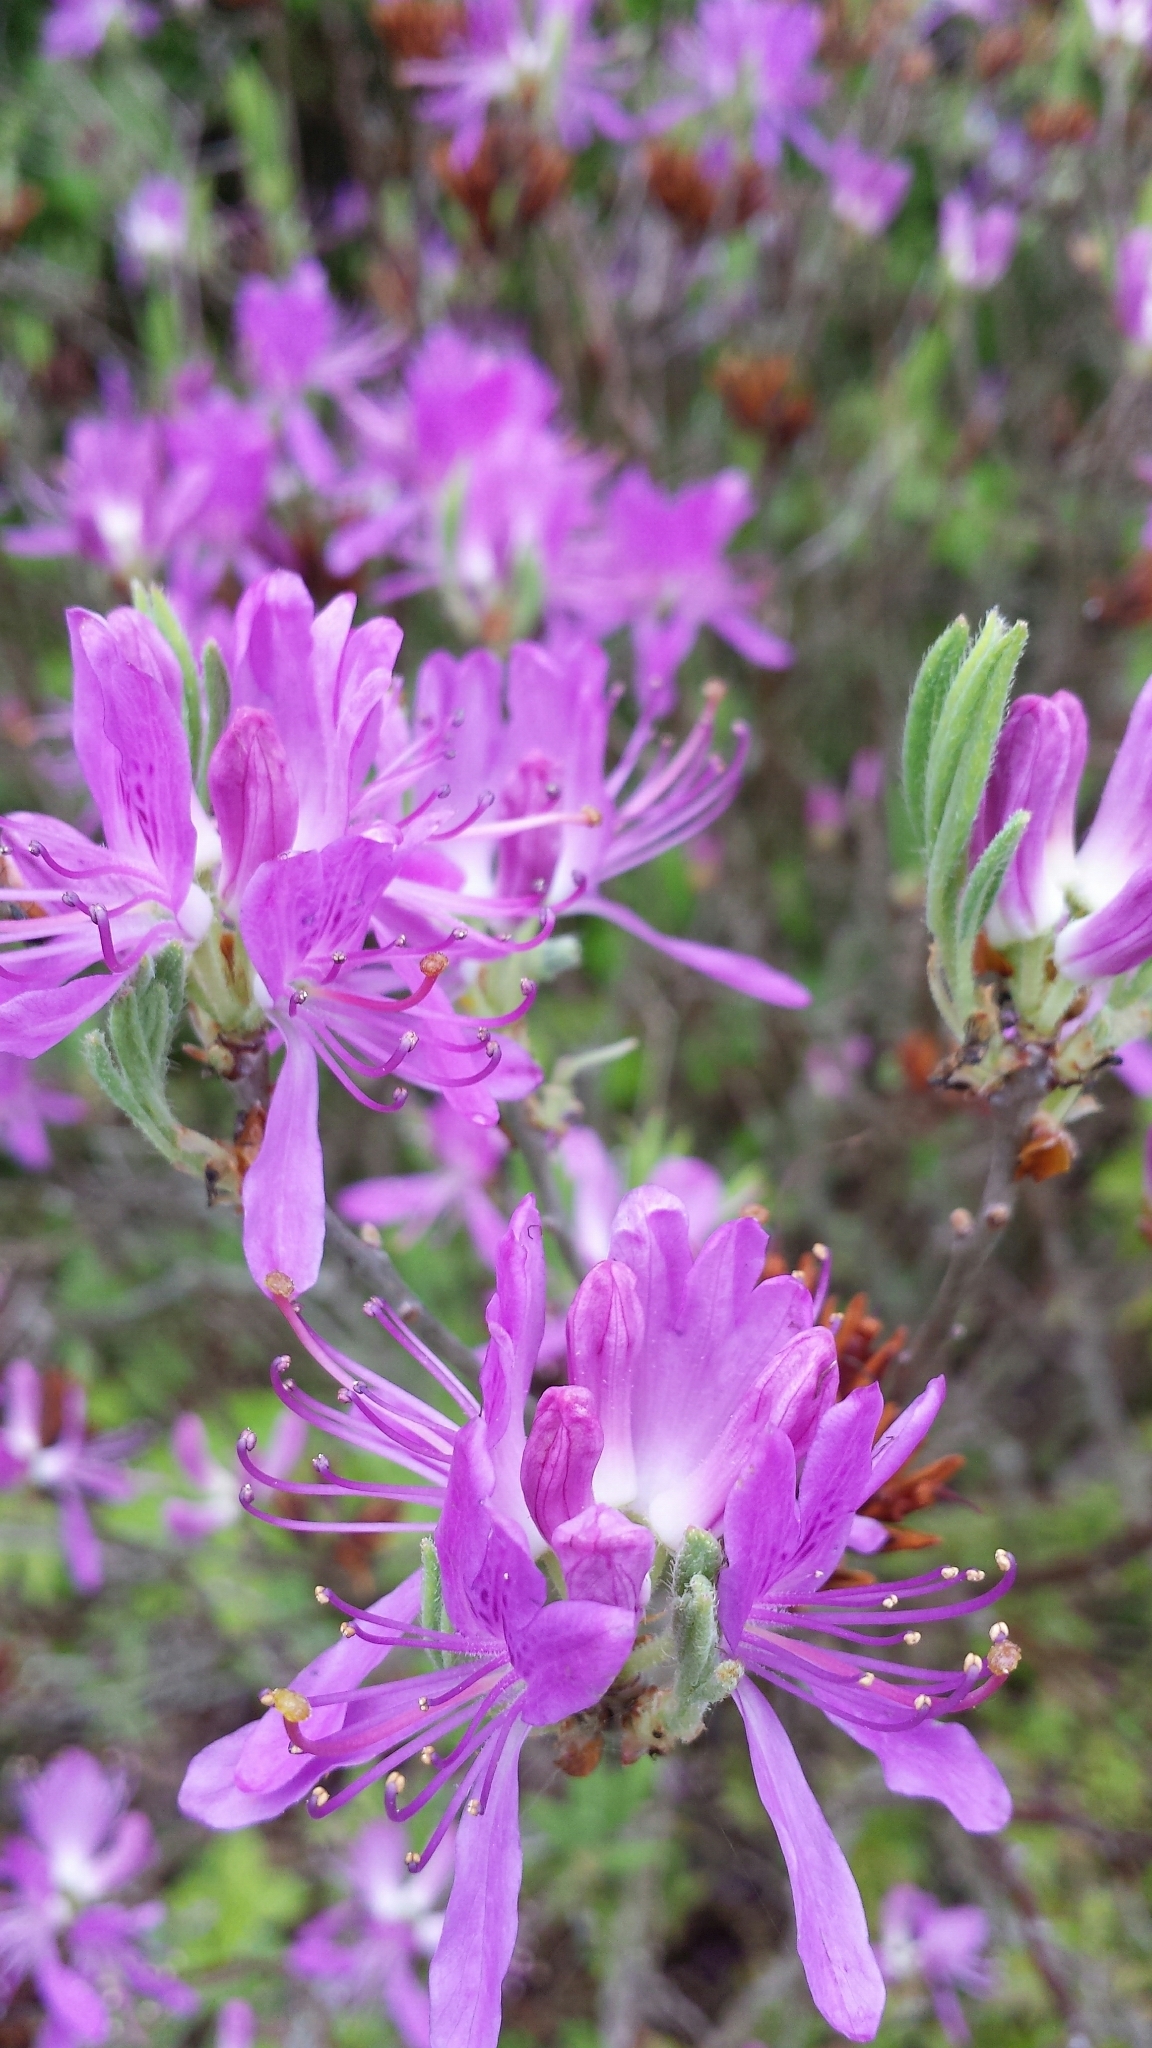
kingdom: Plantae
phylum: Tracheophyta
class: Magnoliopsida
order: Ericales
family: Ericaceae
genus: Rhododendron
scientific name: Rhododendron canadense
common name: Rhodora
